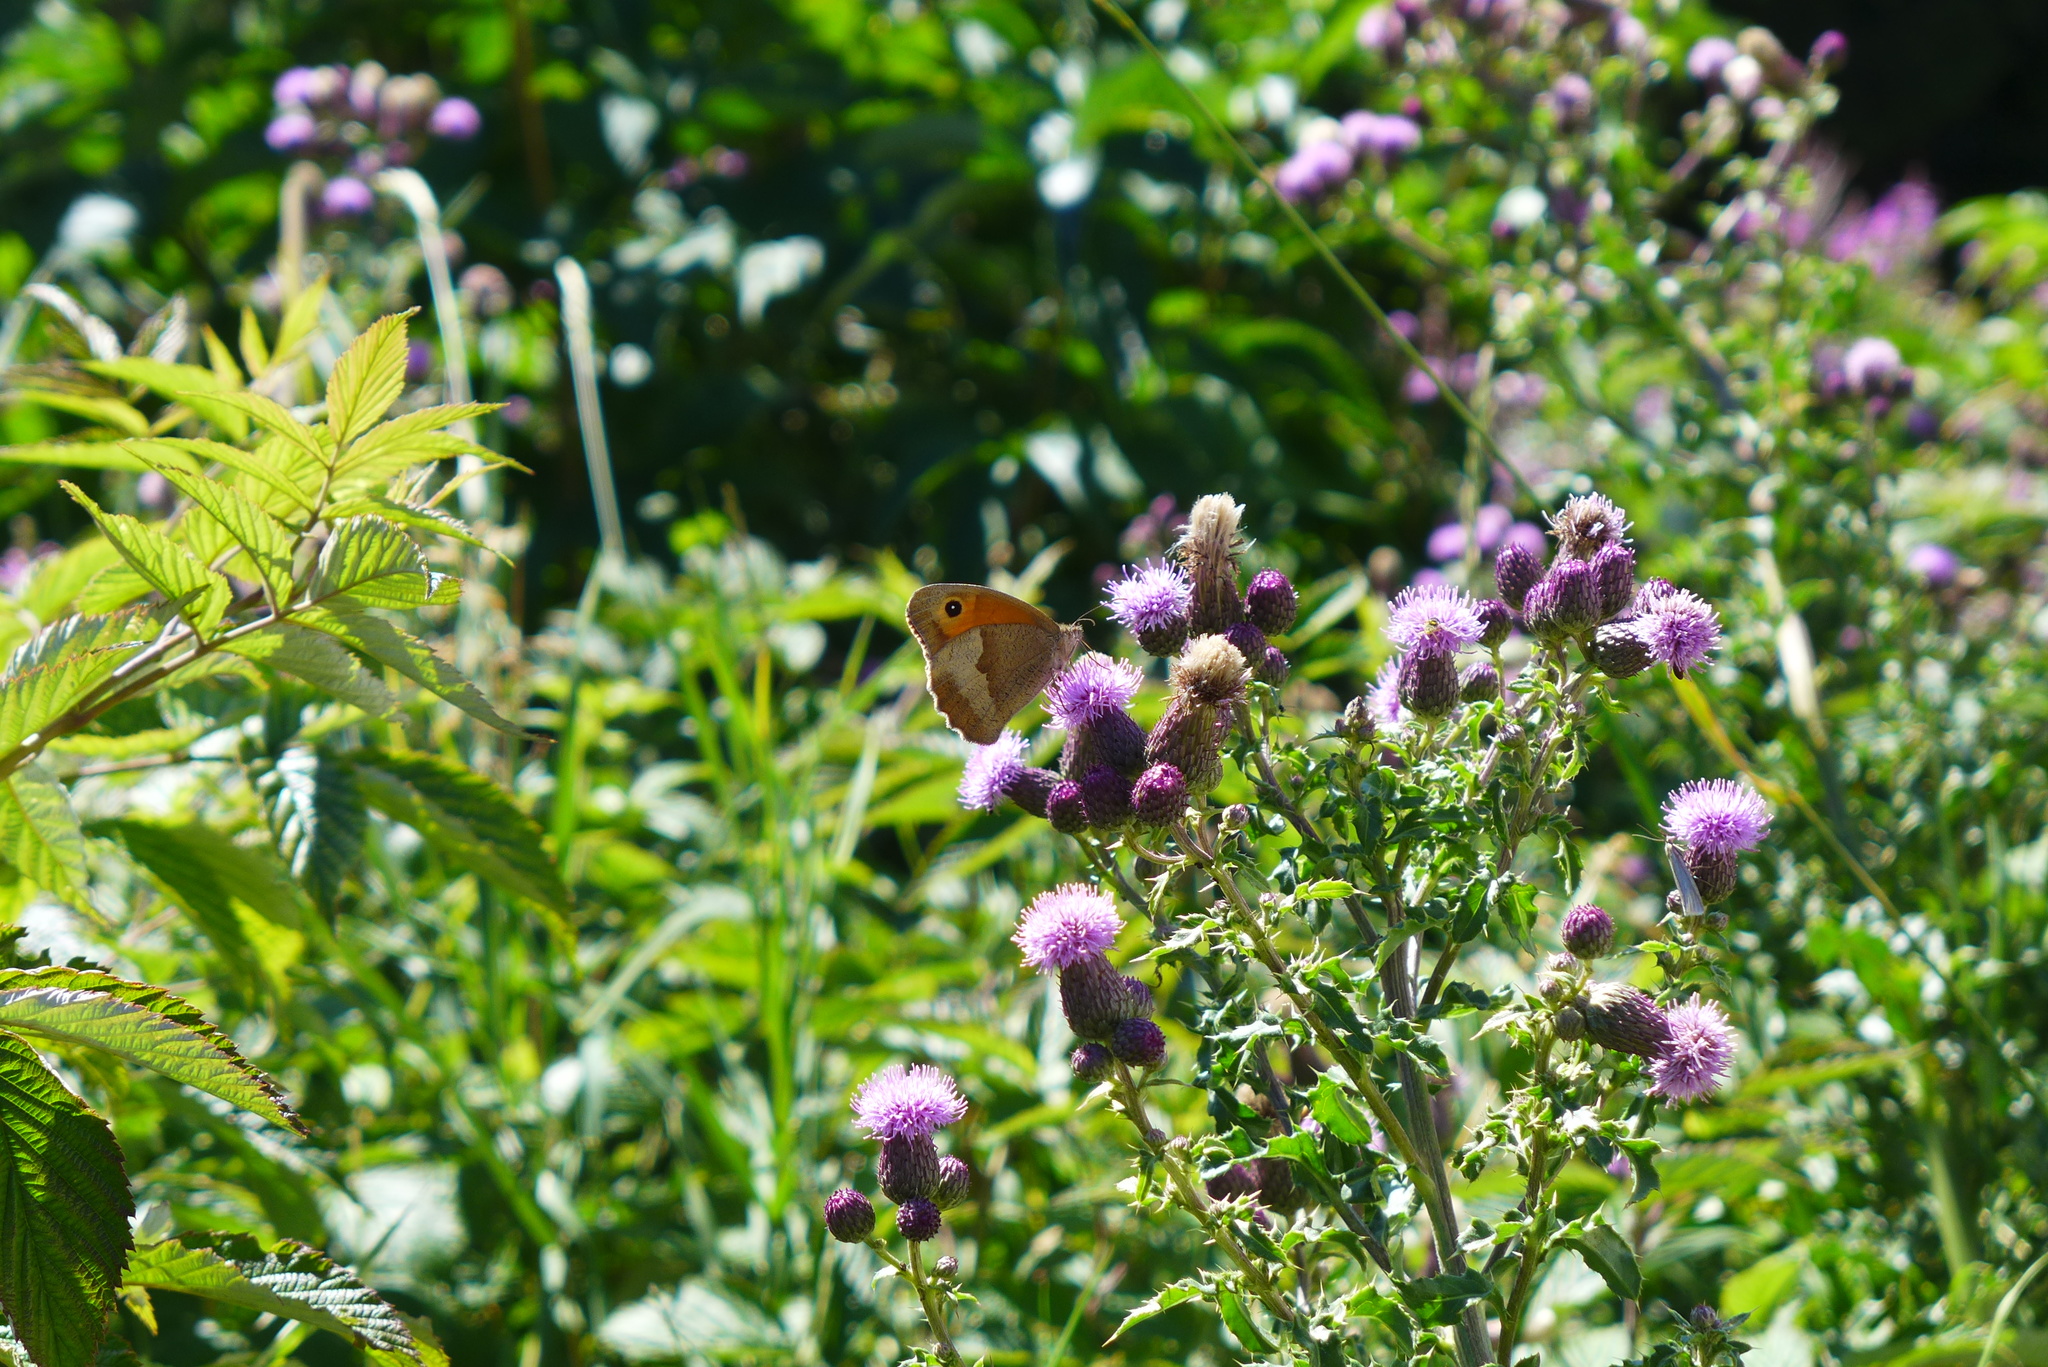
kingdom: Animalia
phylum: Arthropoda
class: Insecta
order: Lepidoptera
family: Nymphalidae
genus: Maniola
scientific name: Maniola jurtina
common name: Meadow brown
